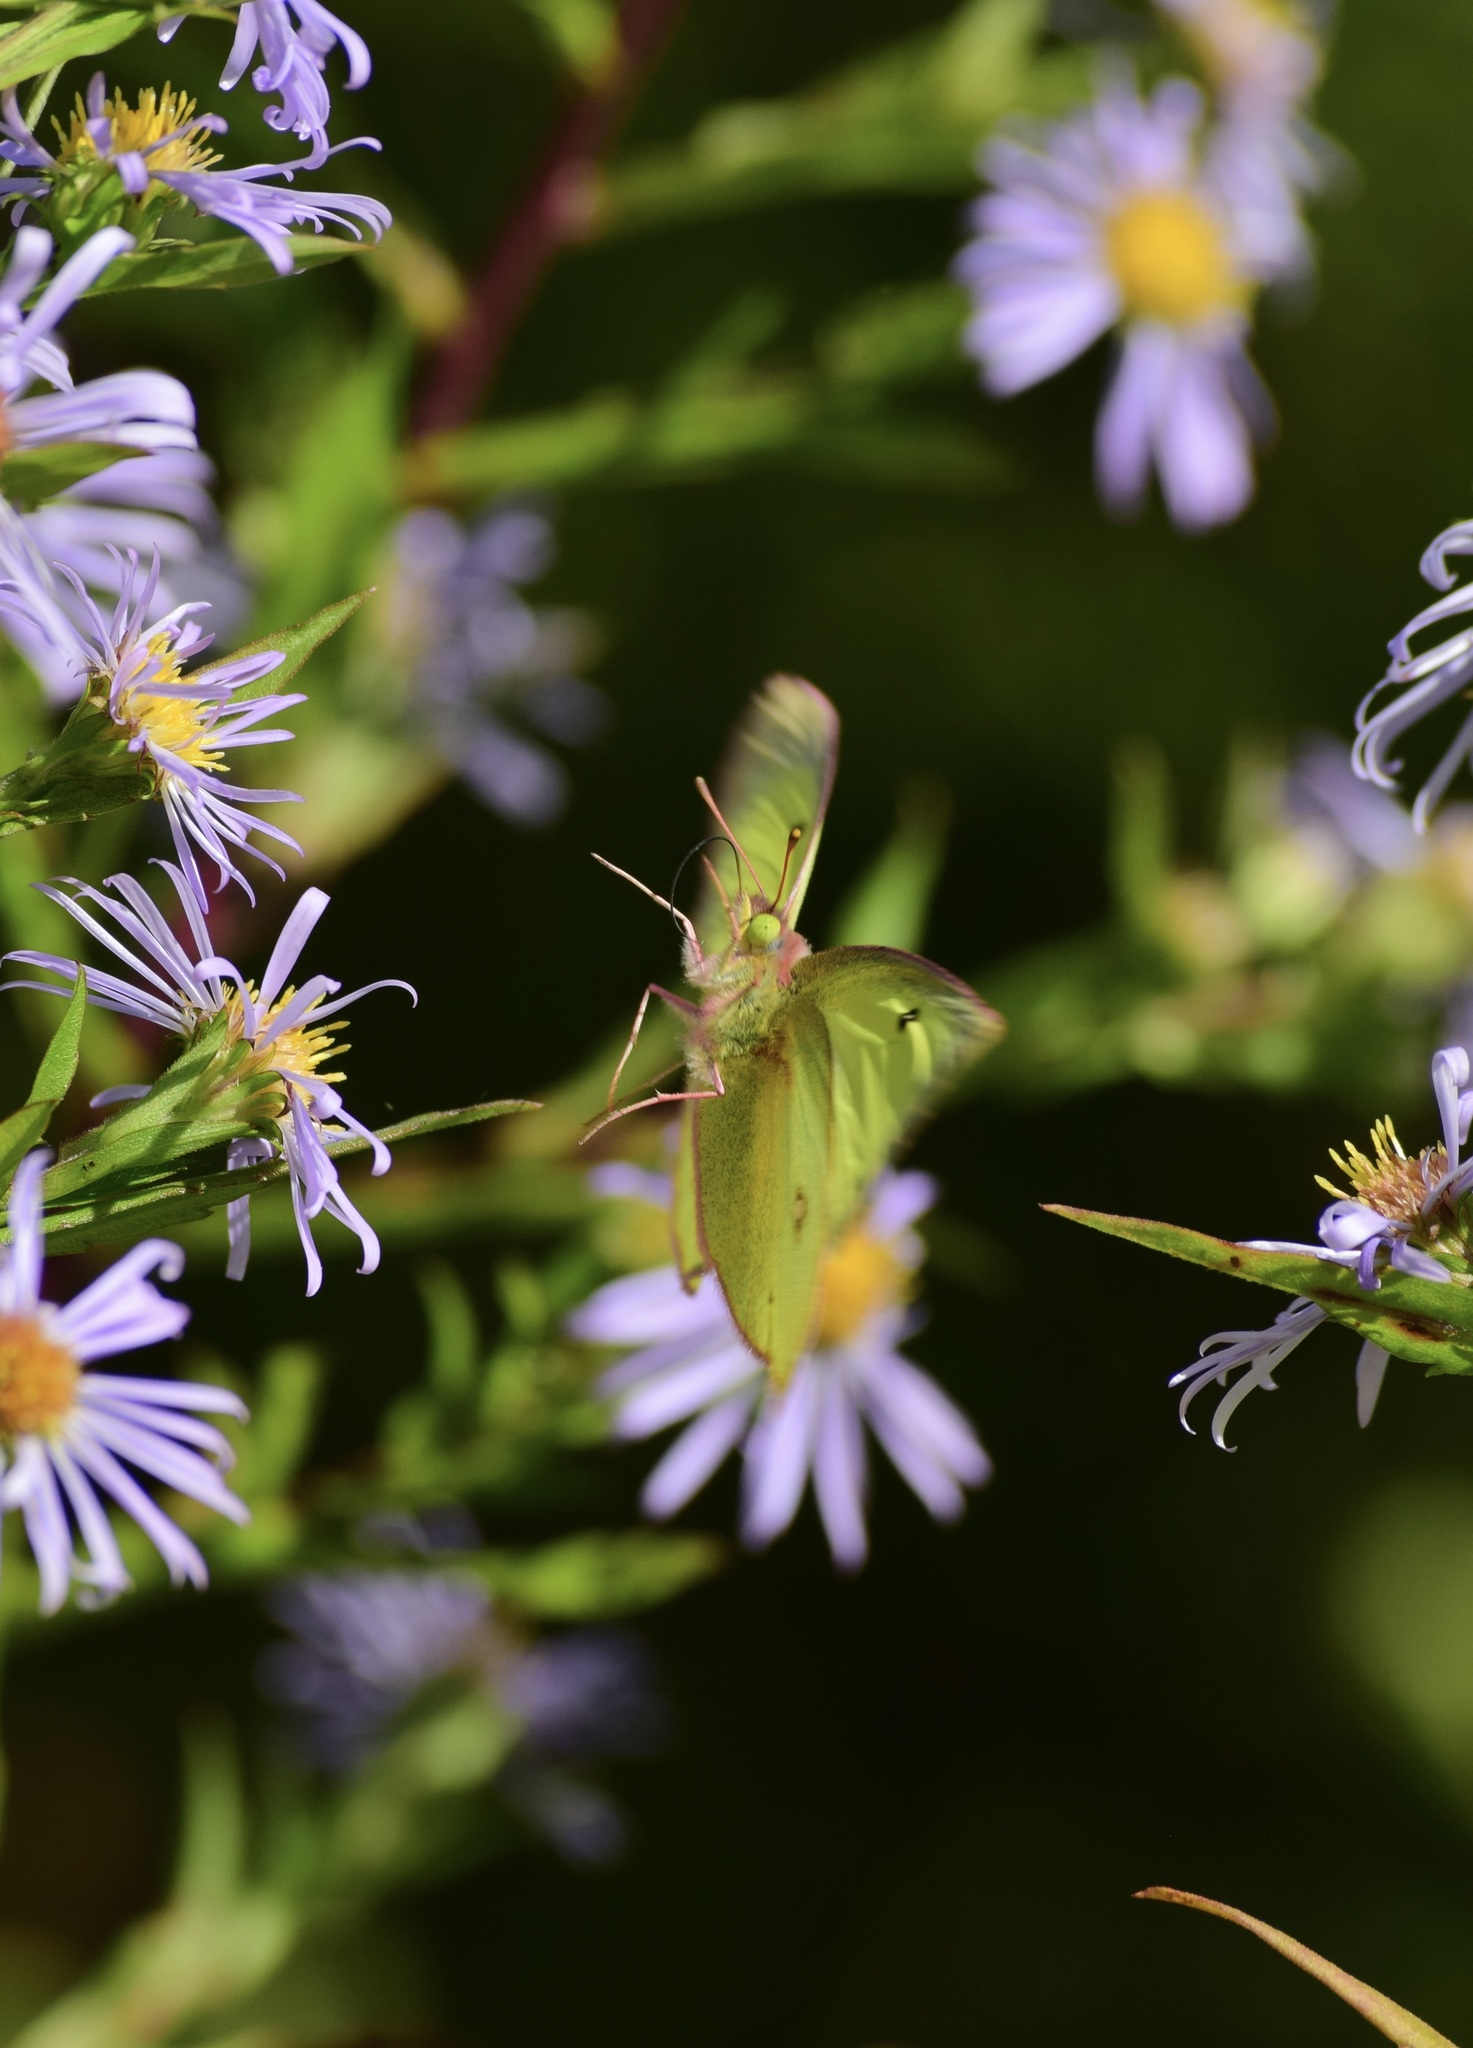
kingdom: Animalia
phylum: Arthropoda
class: Insecta
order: Lepidoptera
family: Pieridae
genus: Colias
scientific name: Colias philodice
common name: Clouded sulphur
